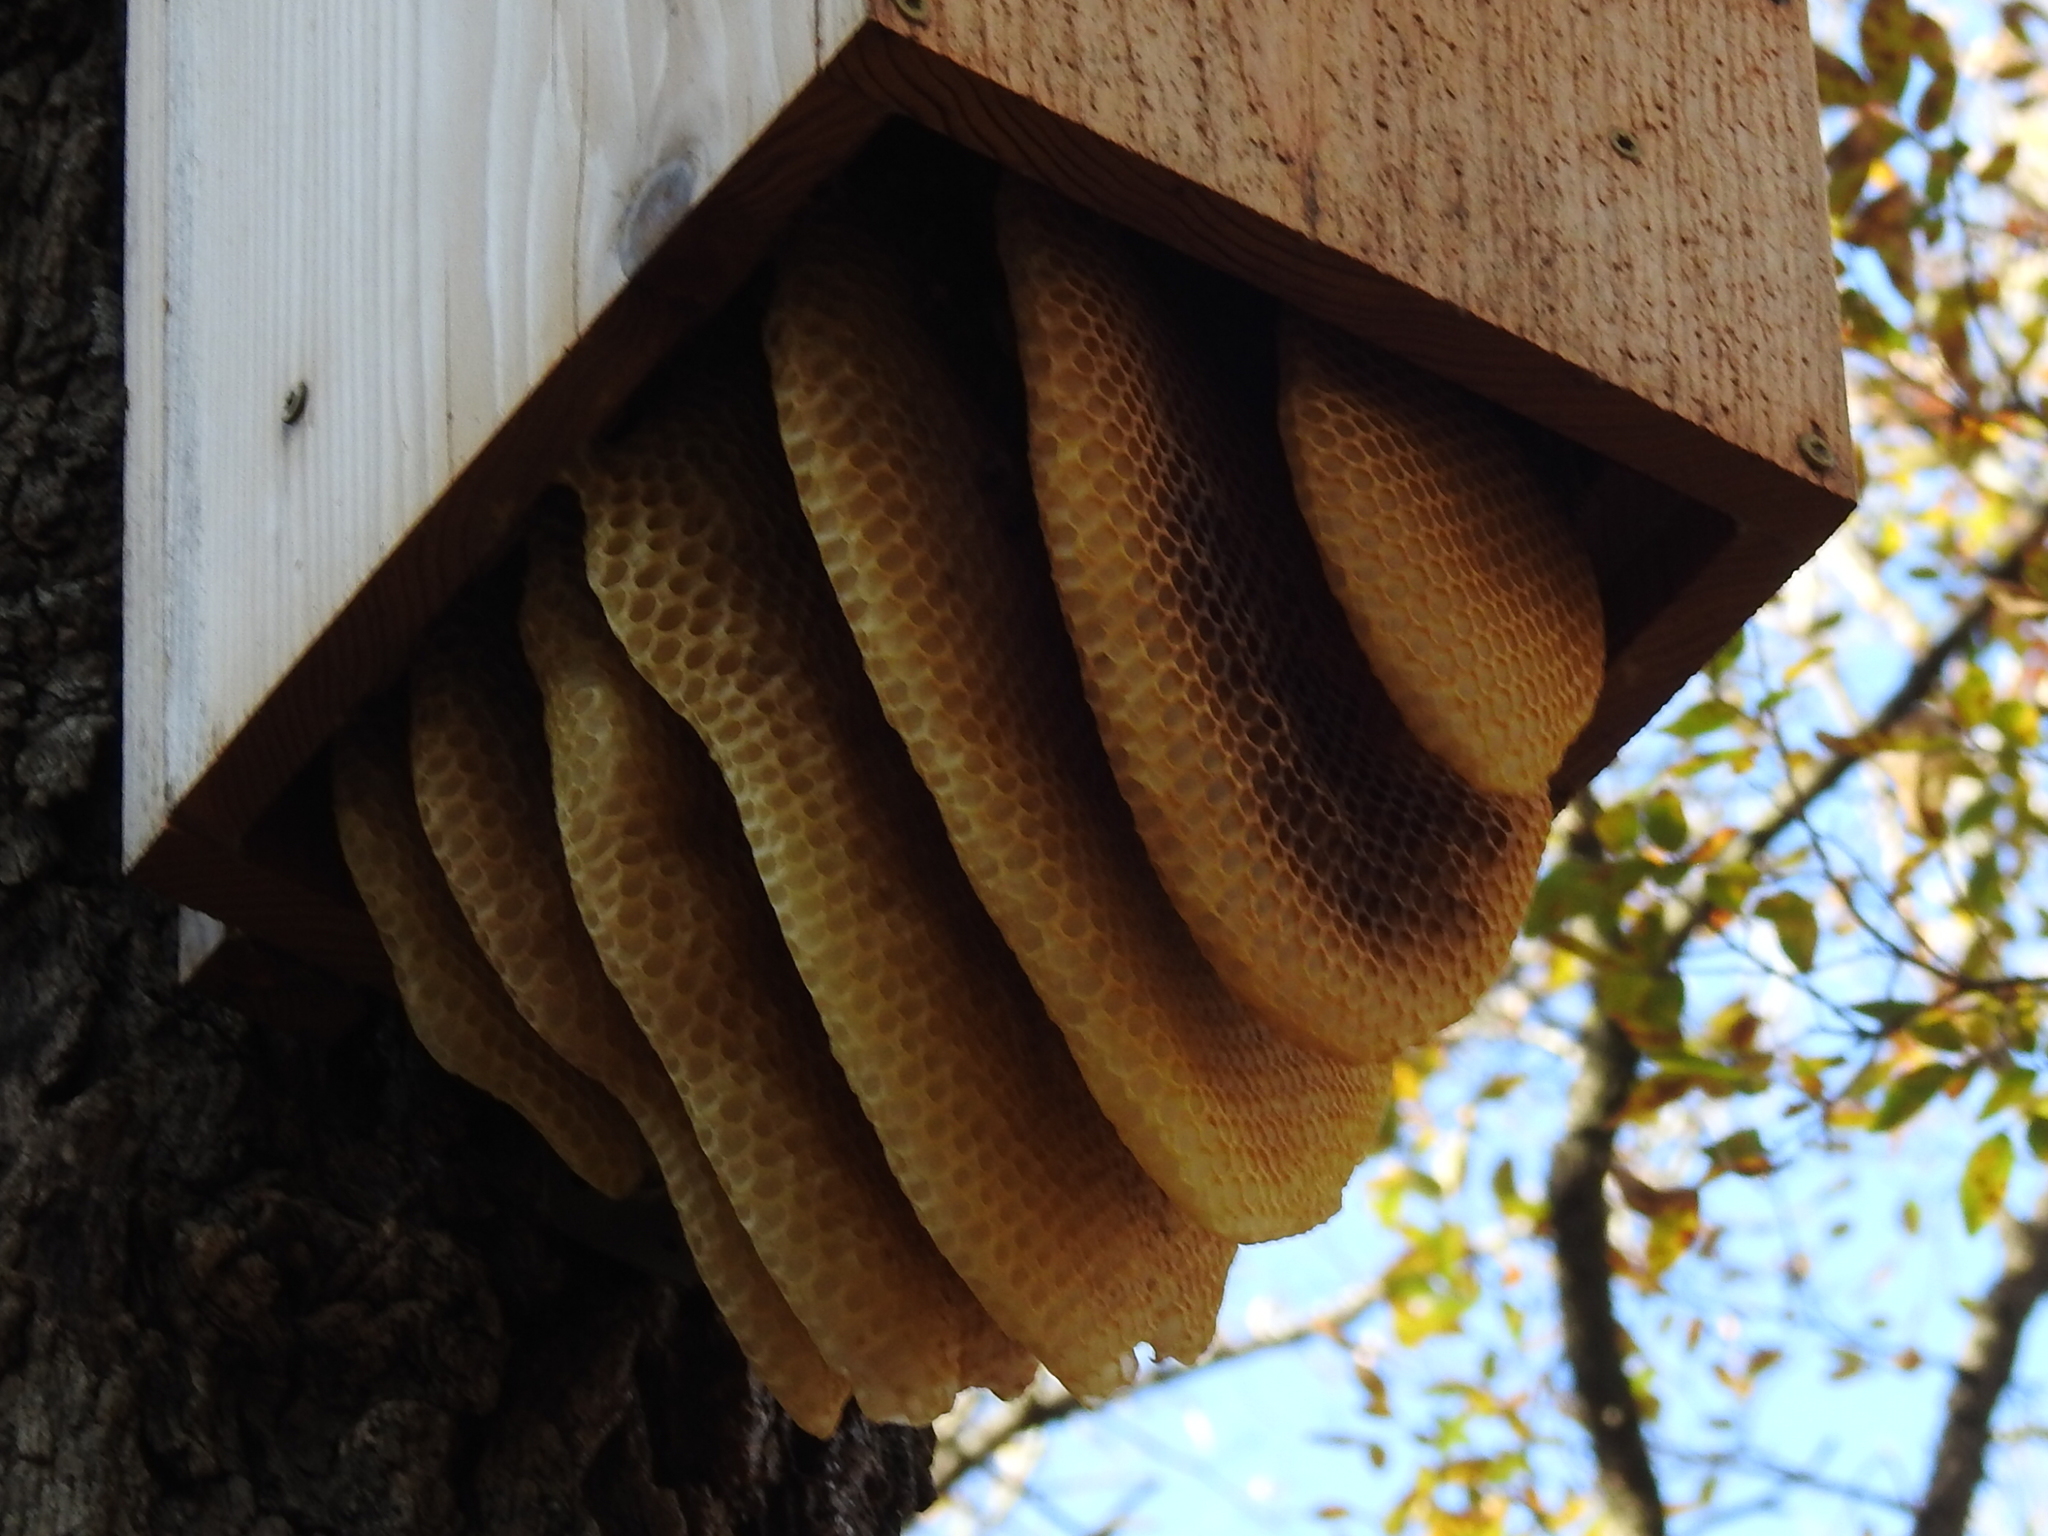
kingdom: Animalia
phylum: Arthropoda
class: Insecta
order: Hymenoptera
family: Apidae
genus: Apis
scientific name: Apis mellifera
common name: Honey bee
